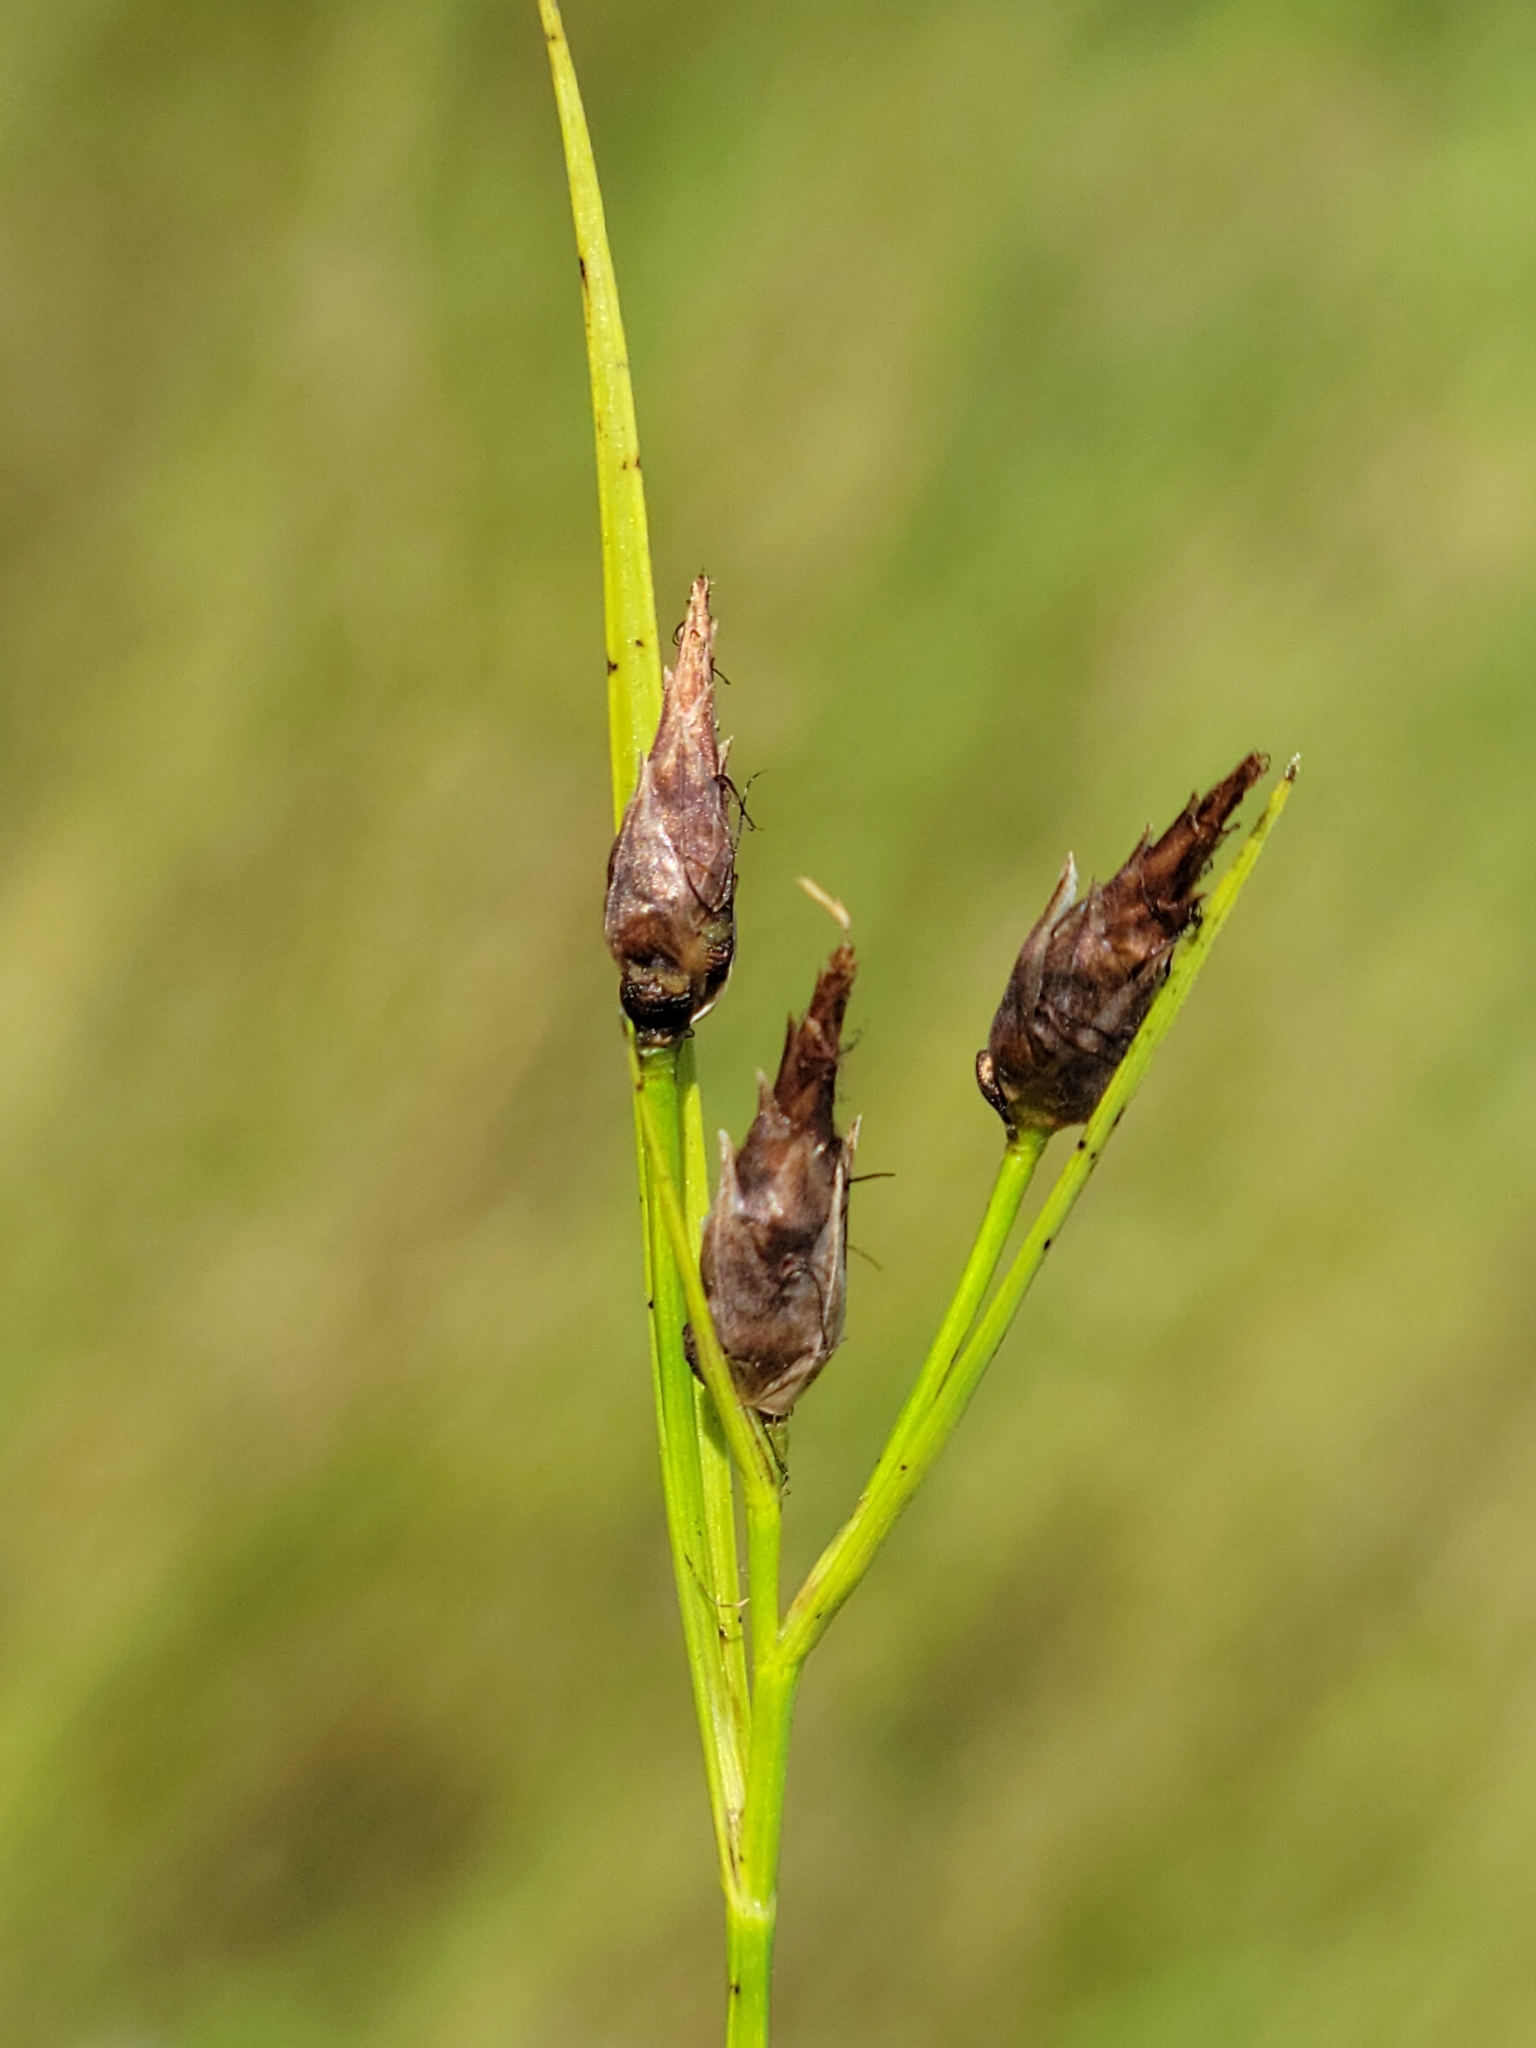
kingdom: Plantae
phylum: Tracheophyta
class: Liliopsida
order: Poales
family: Cyperaceae
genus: Rhynchospora
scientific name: Rhynchospora eximia
